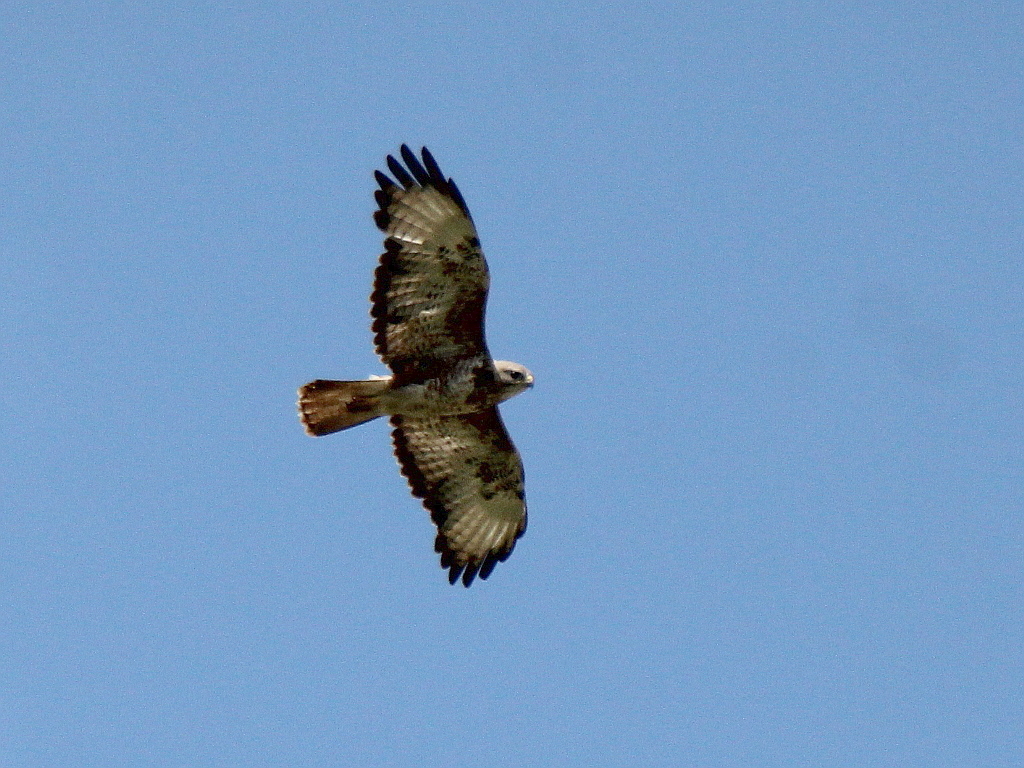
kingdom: Animalia
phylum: Chordata
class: Aves
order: Accipitriformes
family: Accipitridae
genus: Buteo
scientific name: Buteo buteo
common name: Common buzzard
